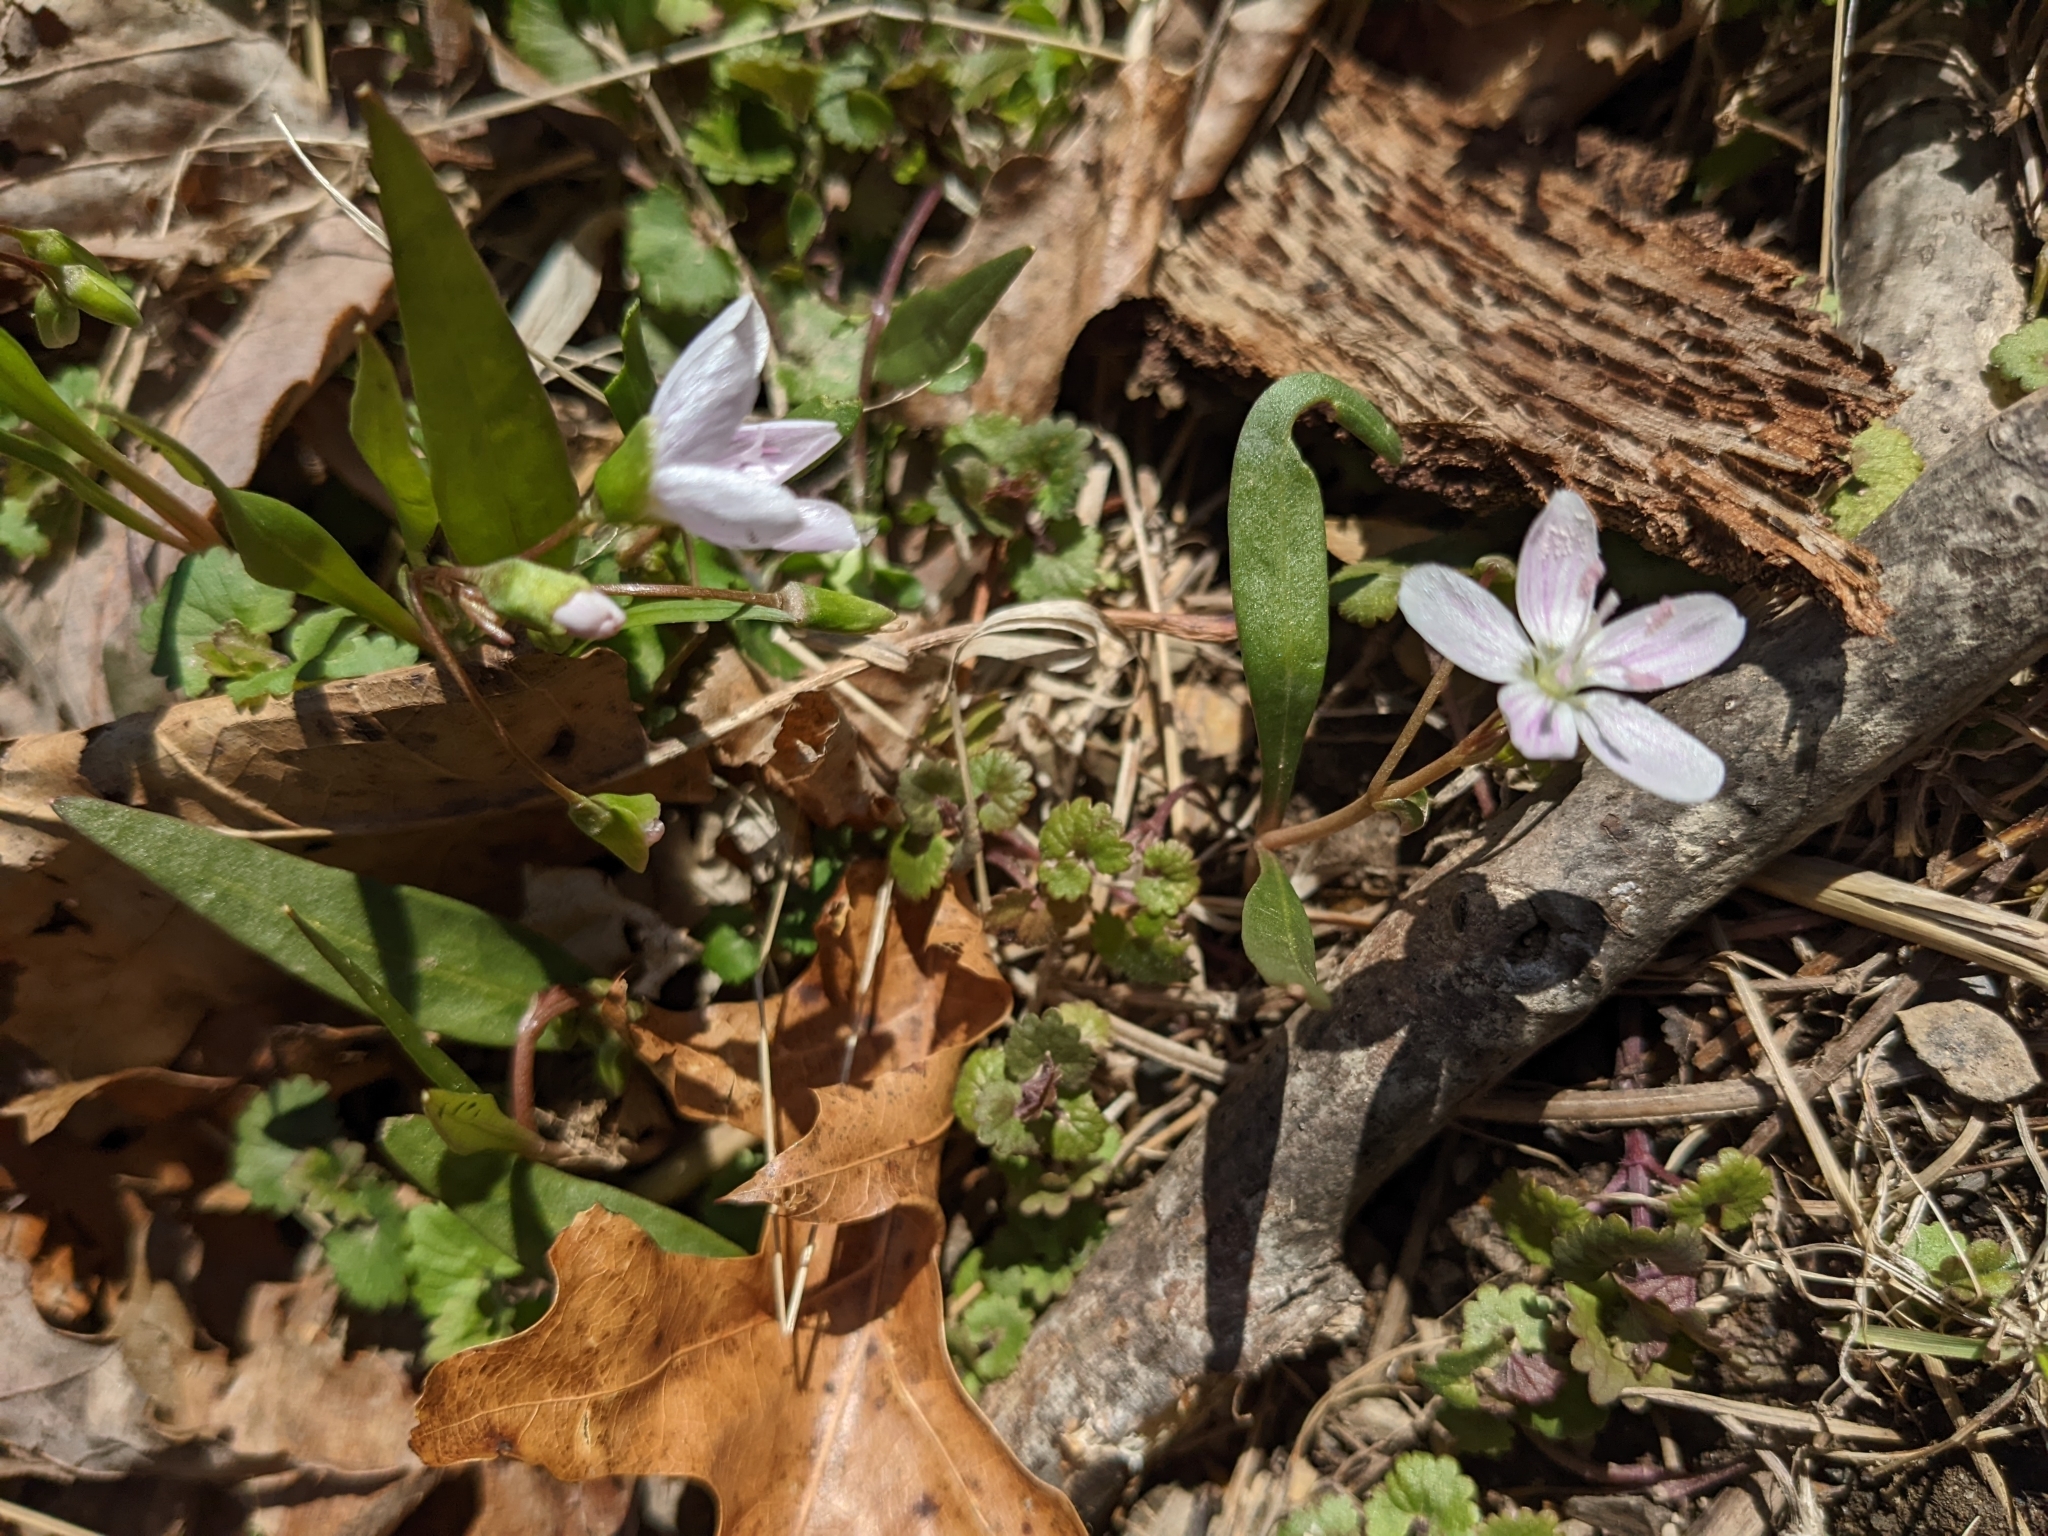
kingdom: Plantae
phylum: Tracheophyta
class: Magnoliopsida
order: Caryophyllales
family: Montiaceae
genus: Claytonia
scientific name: Claytonia virginica
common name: Virginia springbeauty
